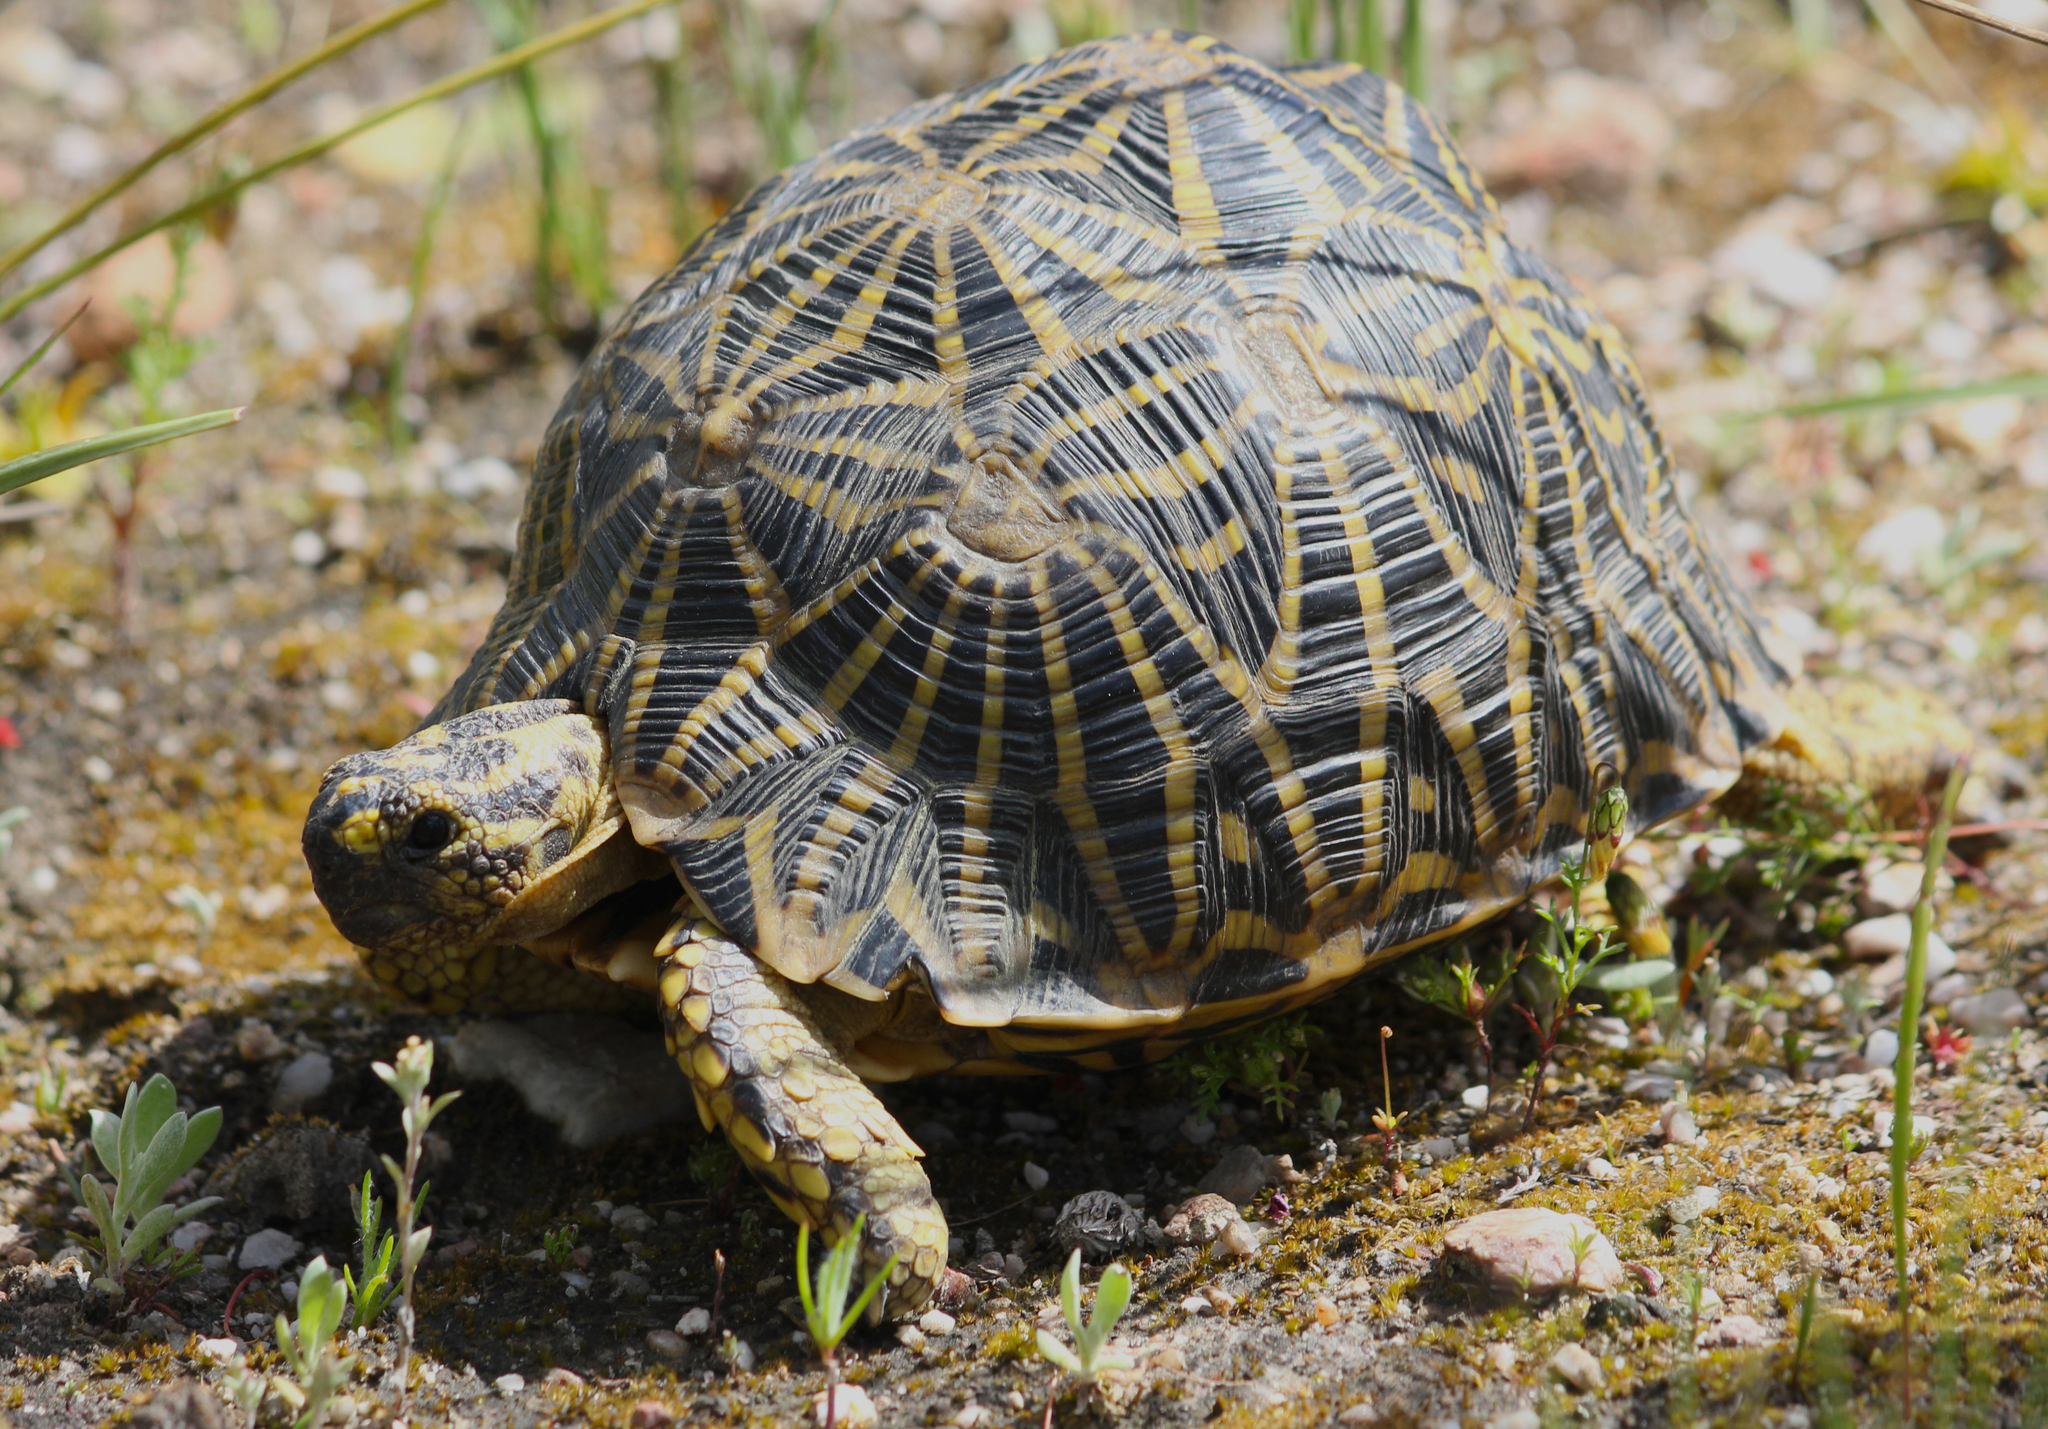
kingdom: Animalia
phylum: Chordata
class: Testudines
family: Testudinidae
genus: Psammobates
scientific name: Psammobates geometricus
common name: Geometric tortoise
